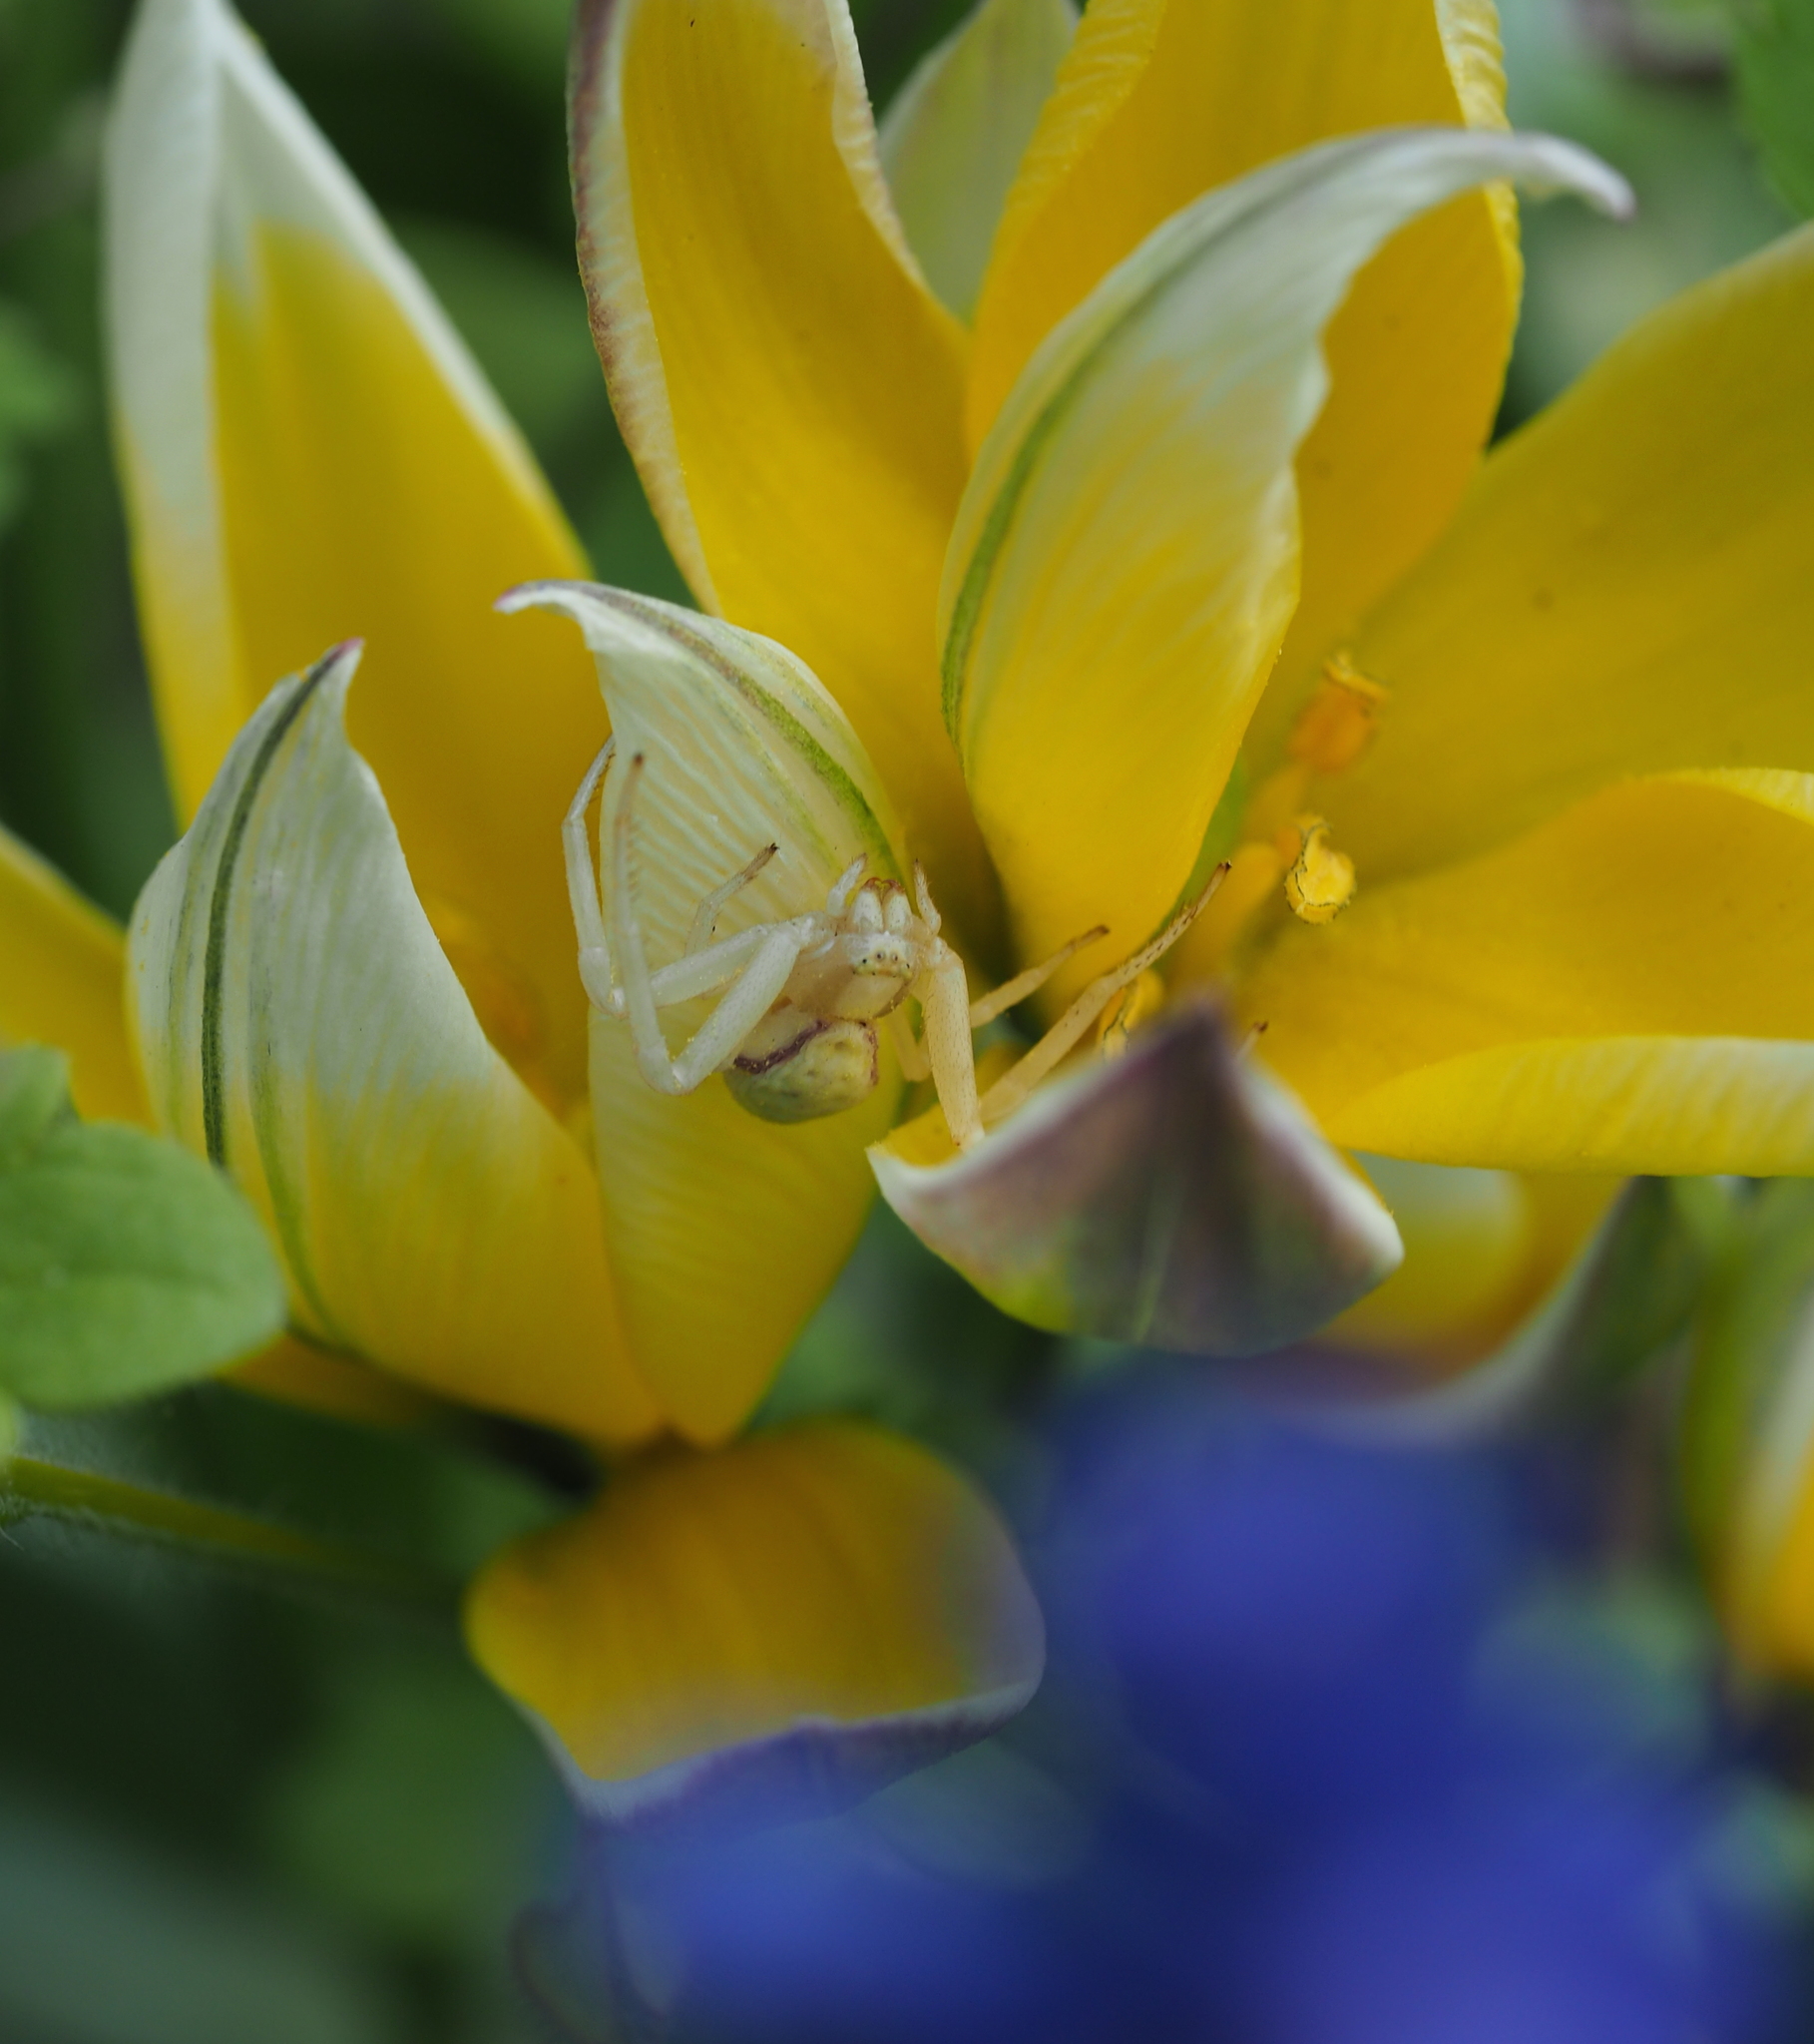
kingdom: Animalia
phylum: Arthropoda
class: Arachnida
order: Araneae
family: Thomisidae
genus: Misumena
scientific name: Misumena vatia
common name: Goldenrod crab spider
